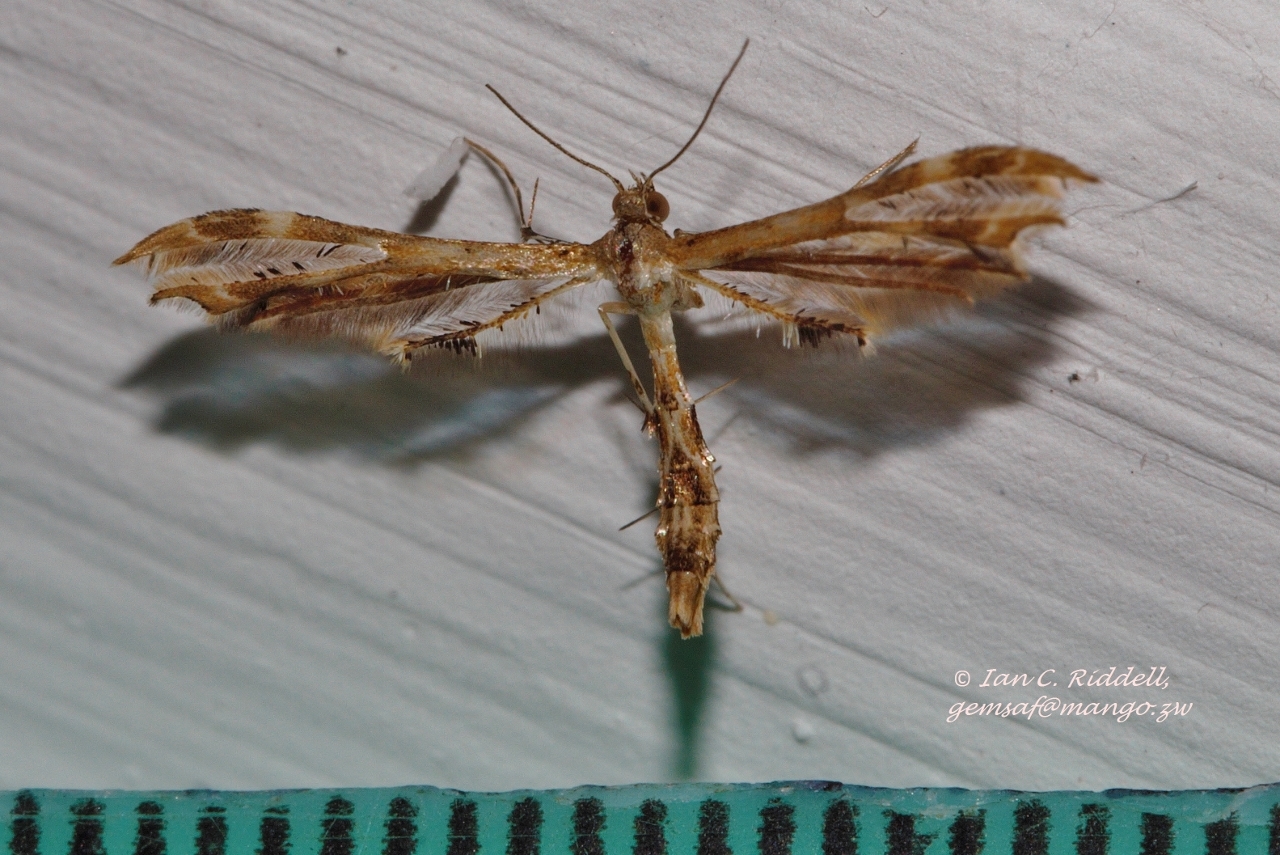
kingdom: Animalia
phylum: Arthropoda
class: Insecta
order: Lepidoptera
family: Pterophoridae
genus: Sphenarches
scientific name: Sphenarches anisodactylus
